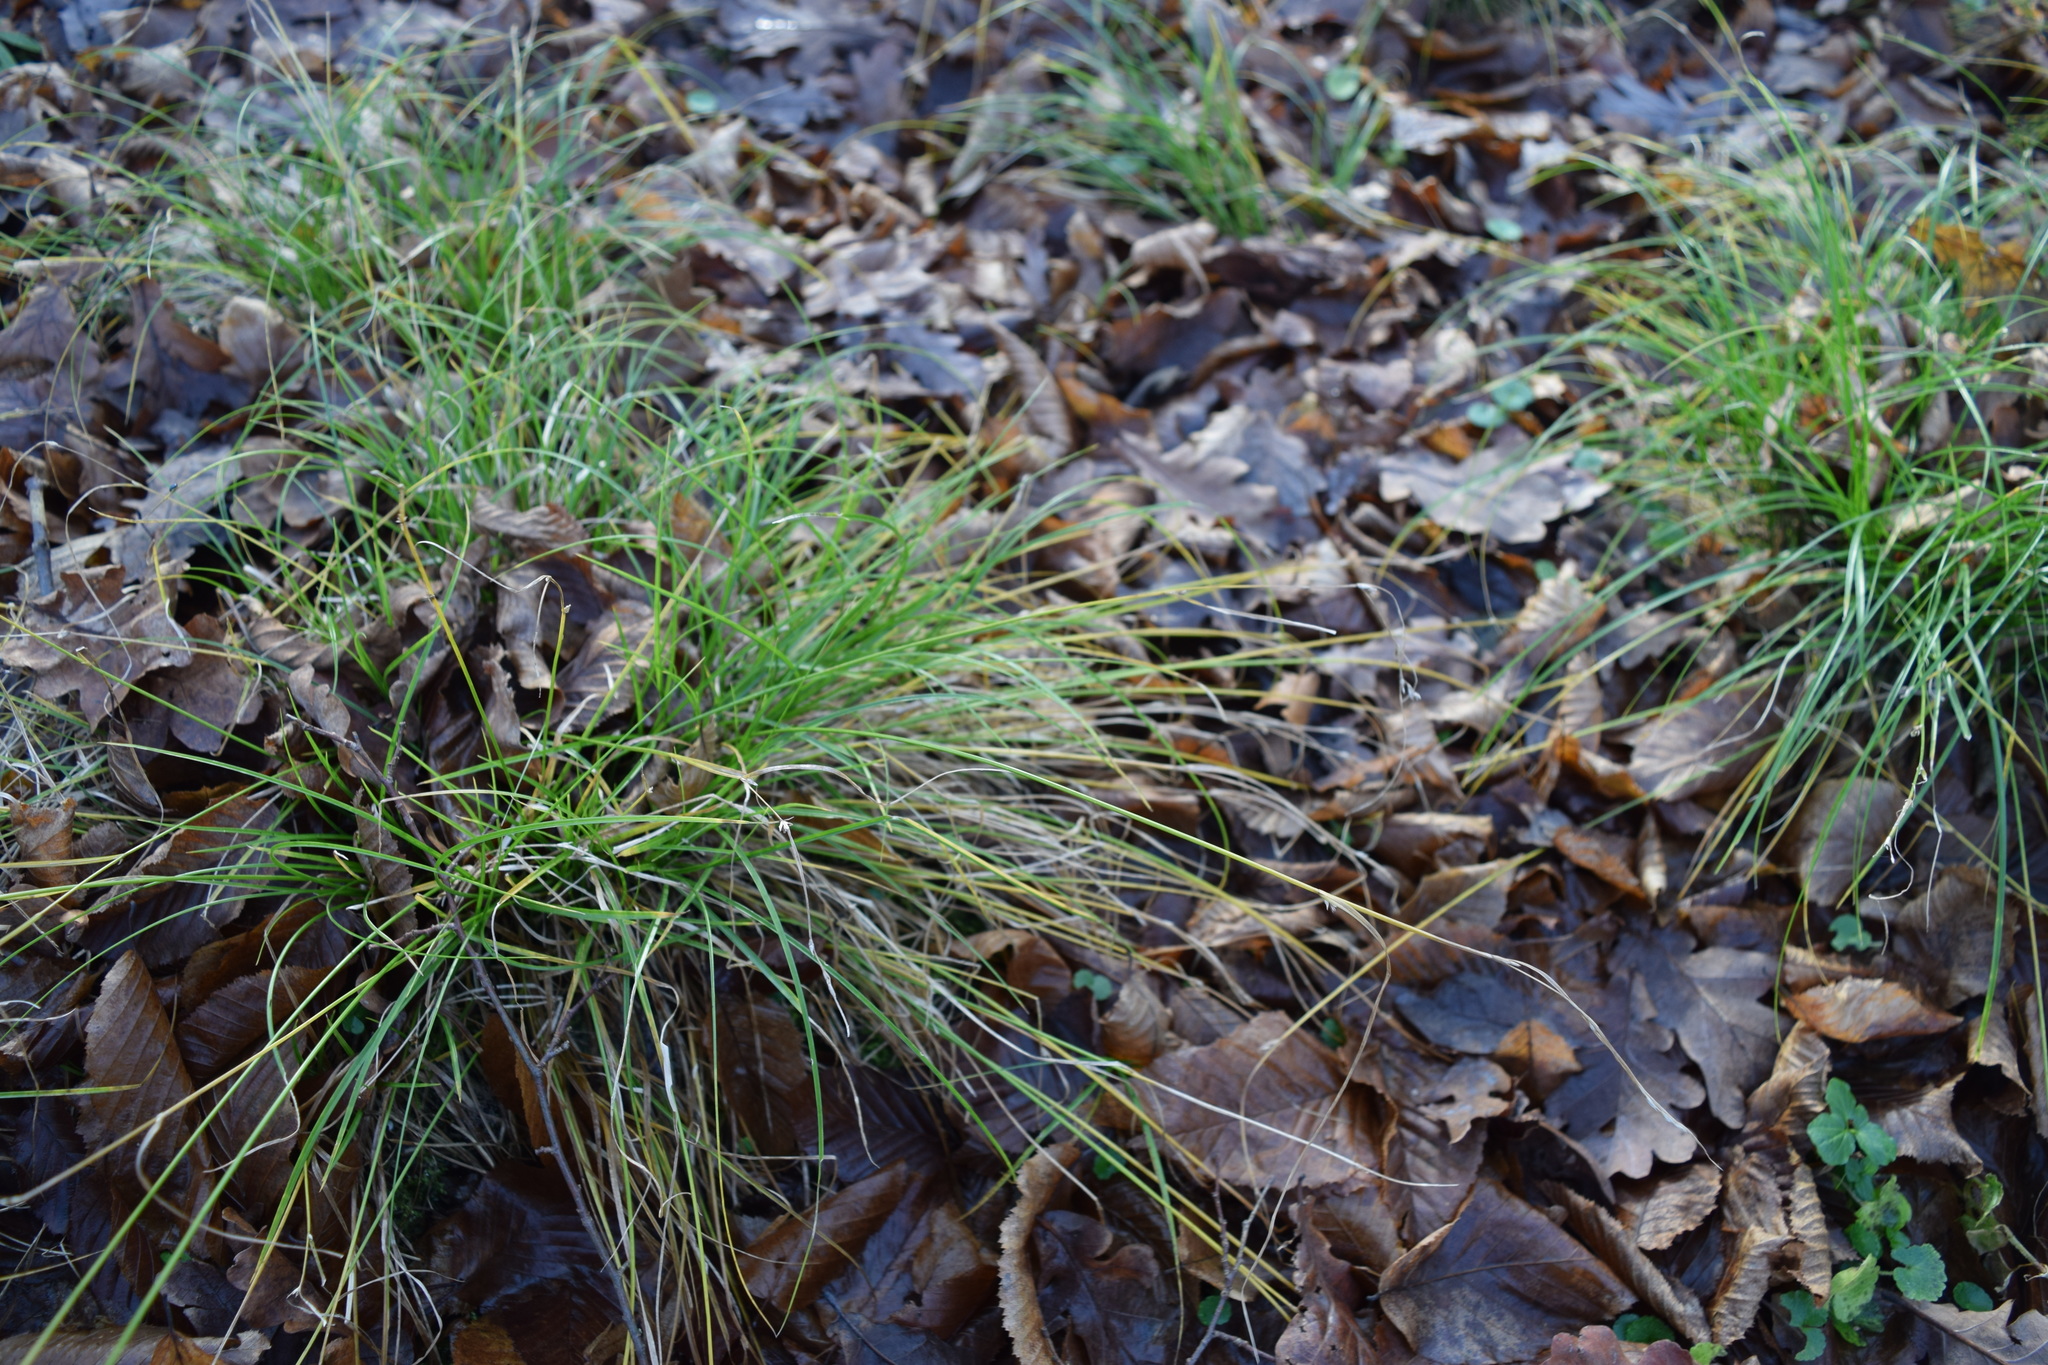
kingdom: Plantae
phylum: Tracheophyta
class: Liliopsida
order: Poales
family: Cyperaceae
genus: Carex
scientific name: Carex remota
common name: Remote sedge
